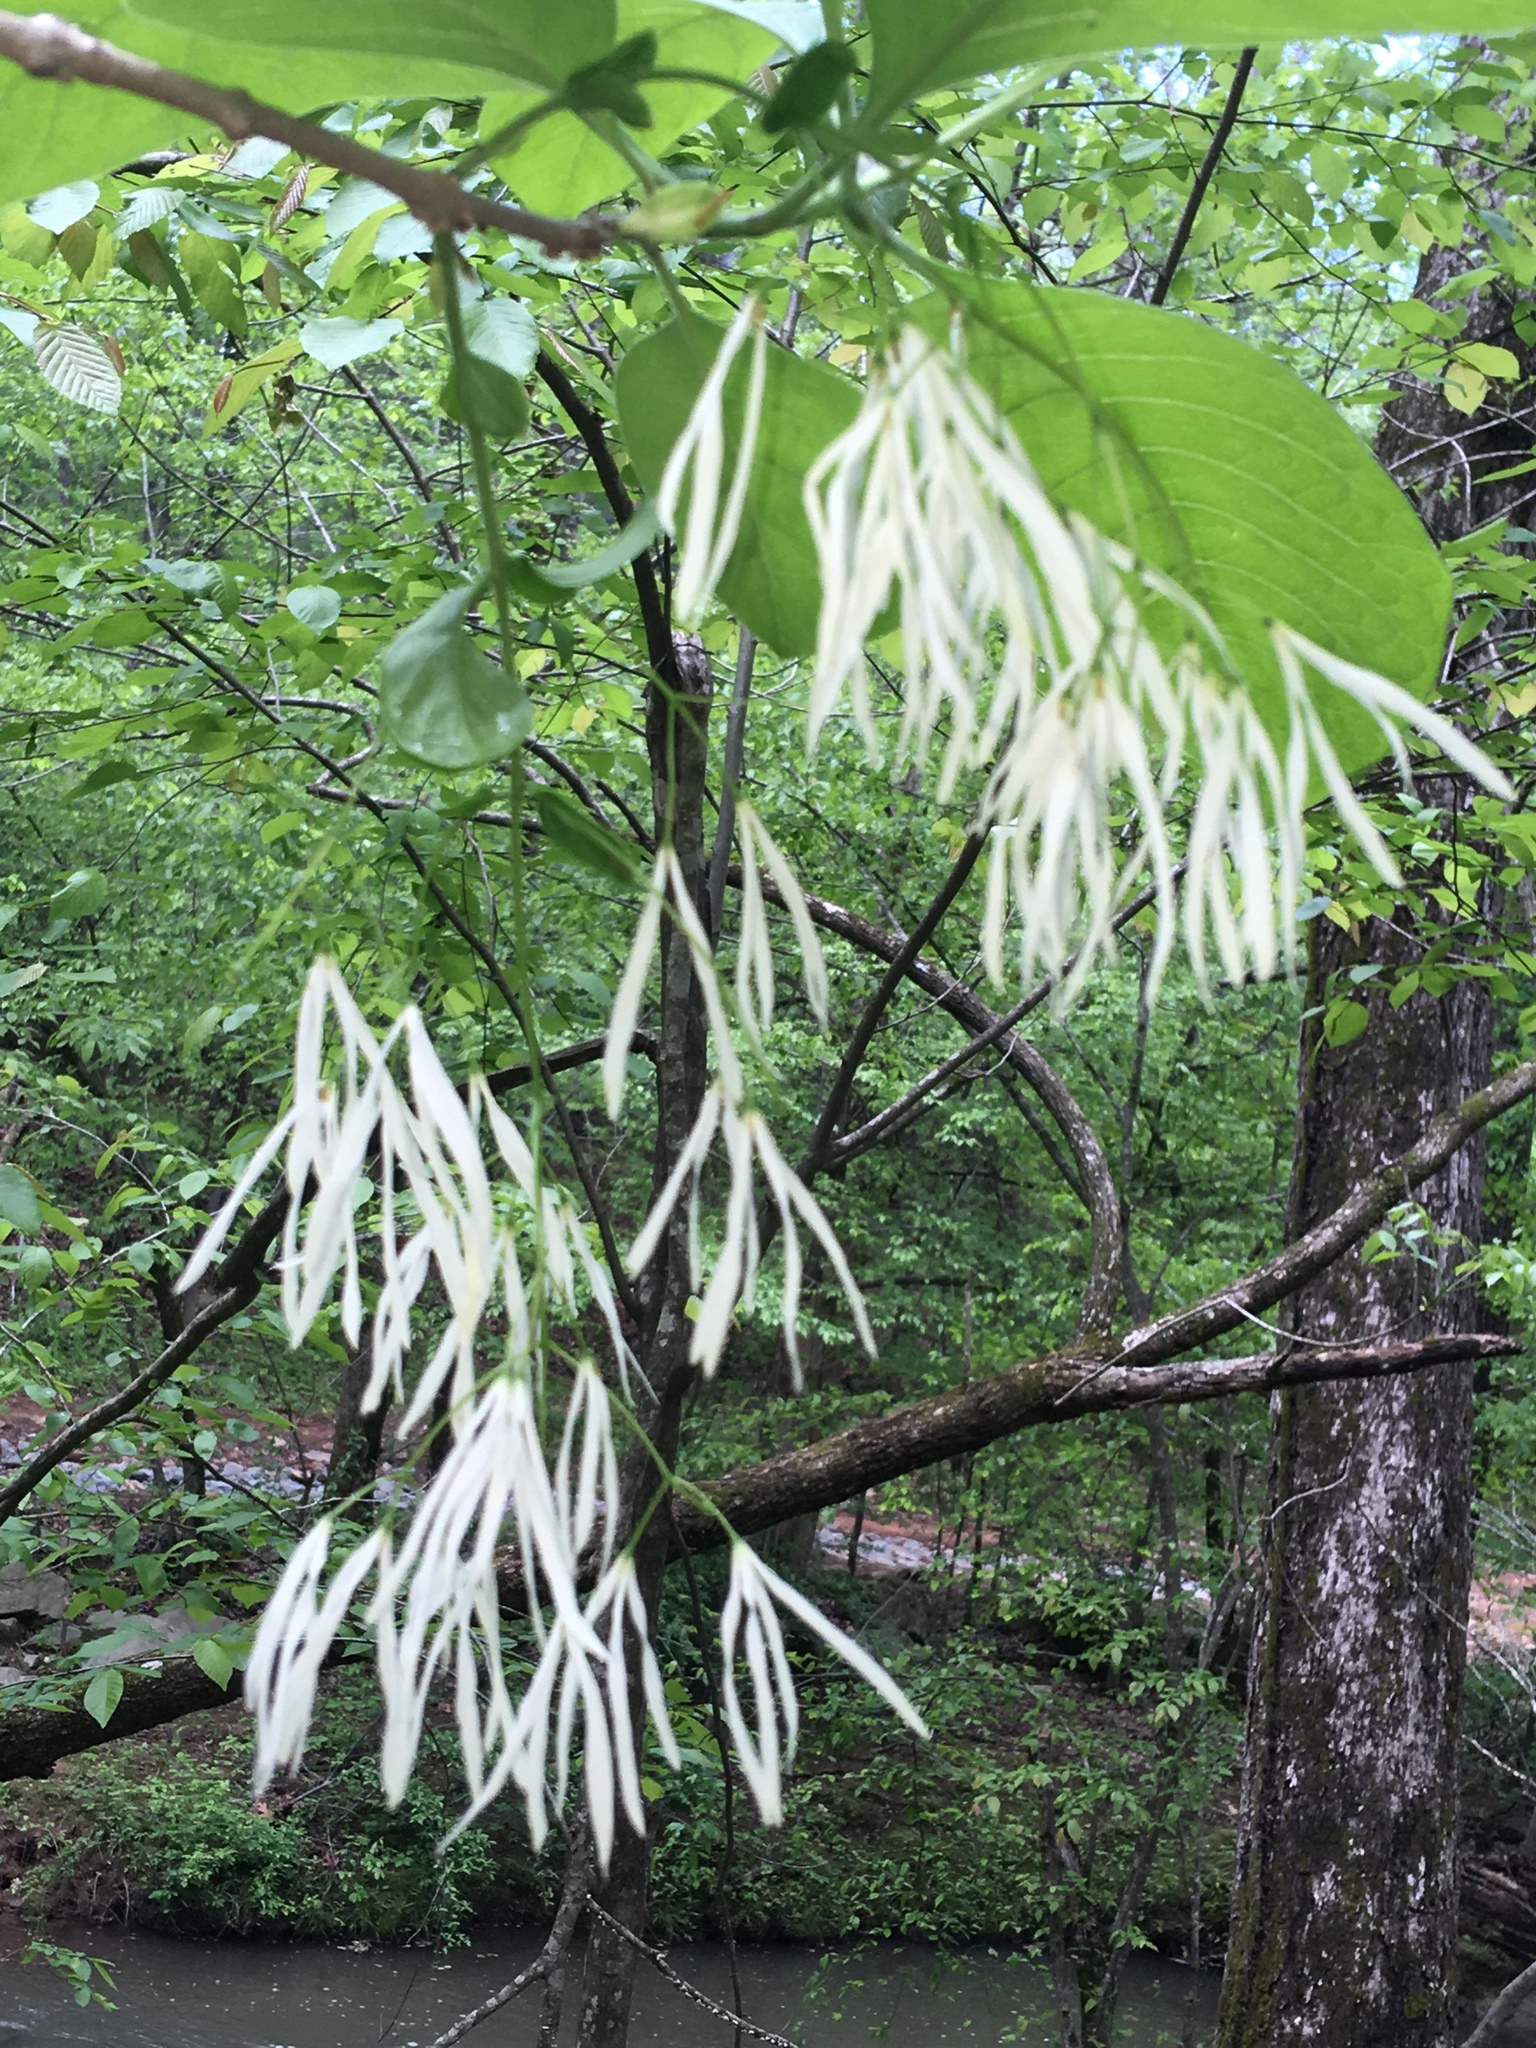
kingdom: Plantae
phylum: Tracheophyta
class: Magnoliopsida
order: Lamiales
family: Oleaceae
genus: Chionanthus
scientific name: Chionanthus virginicus
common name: American fringetree
